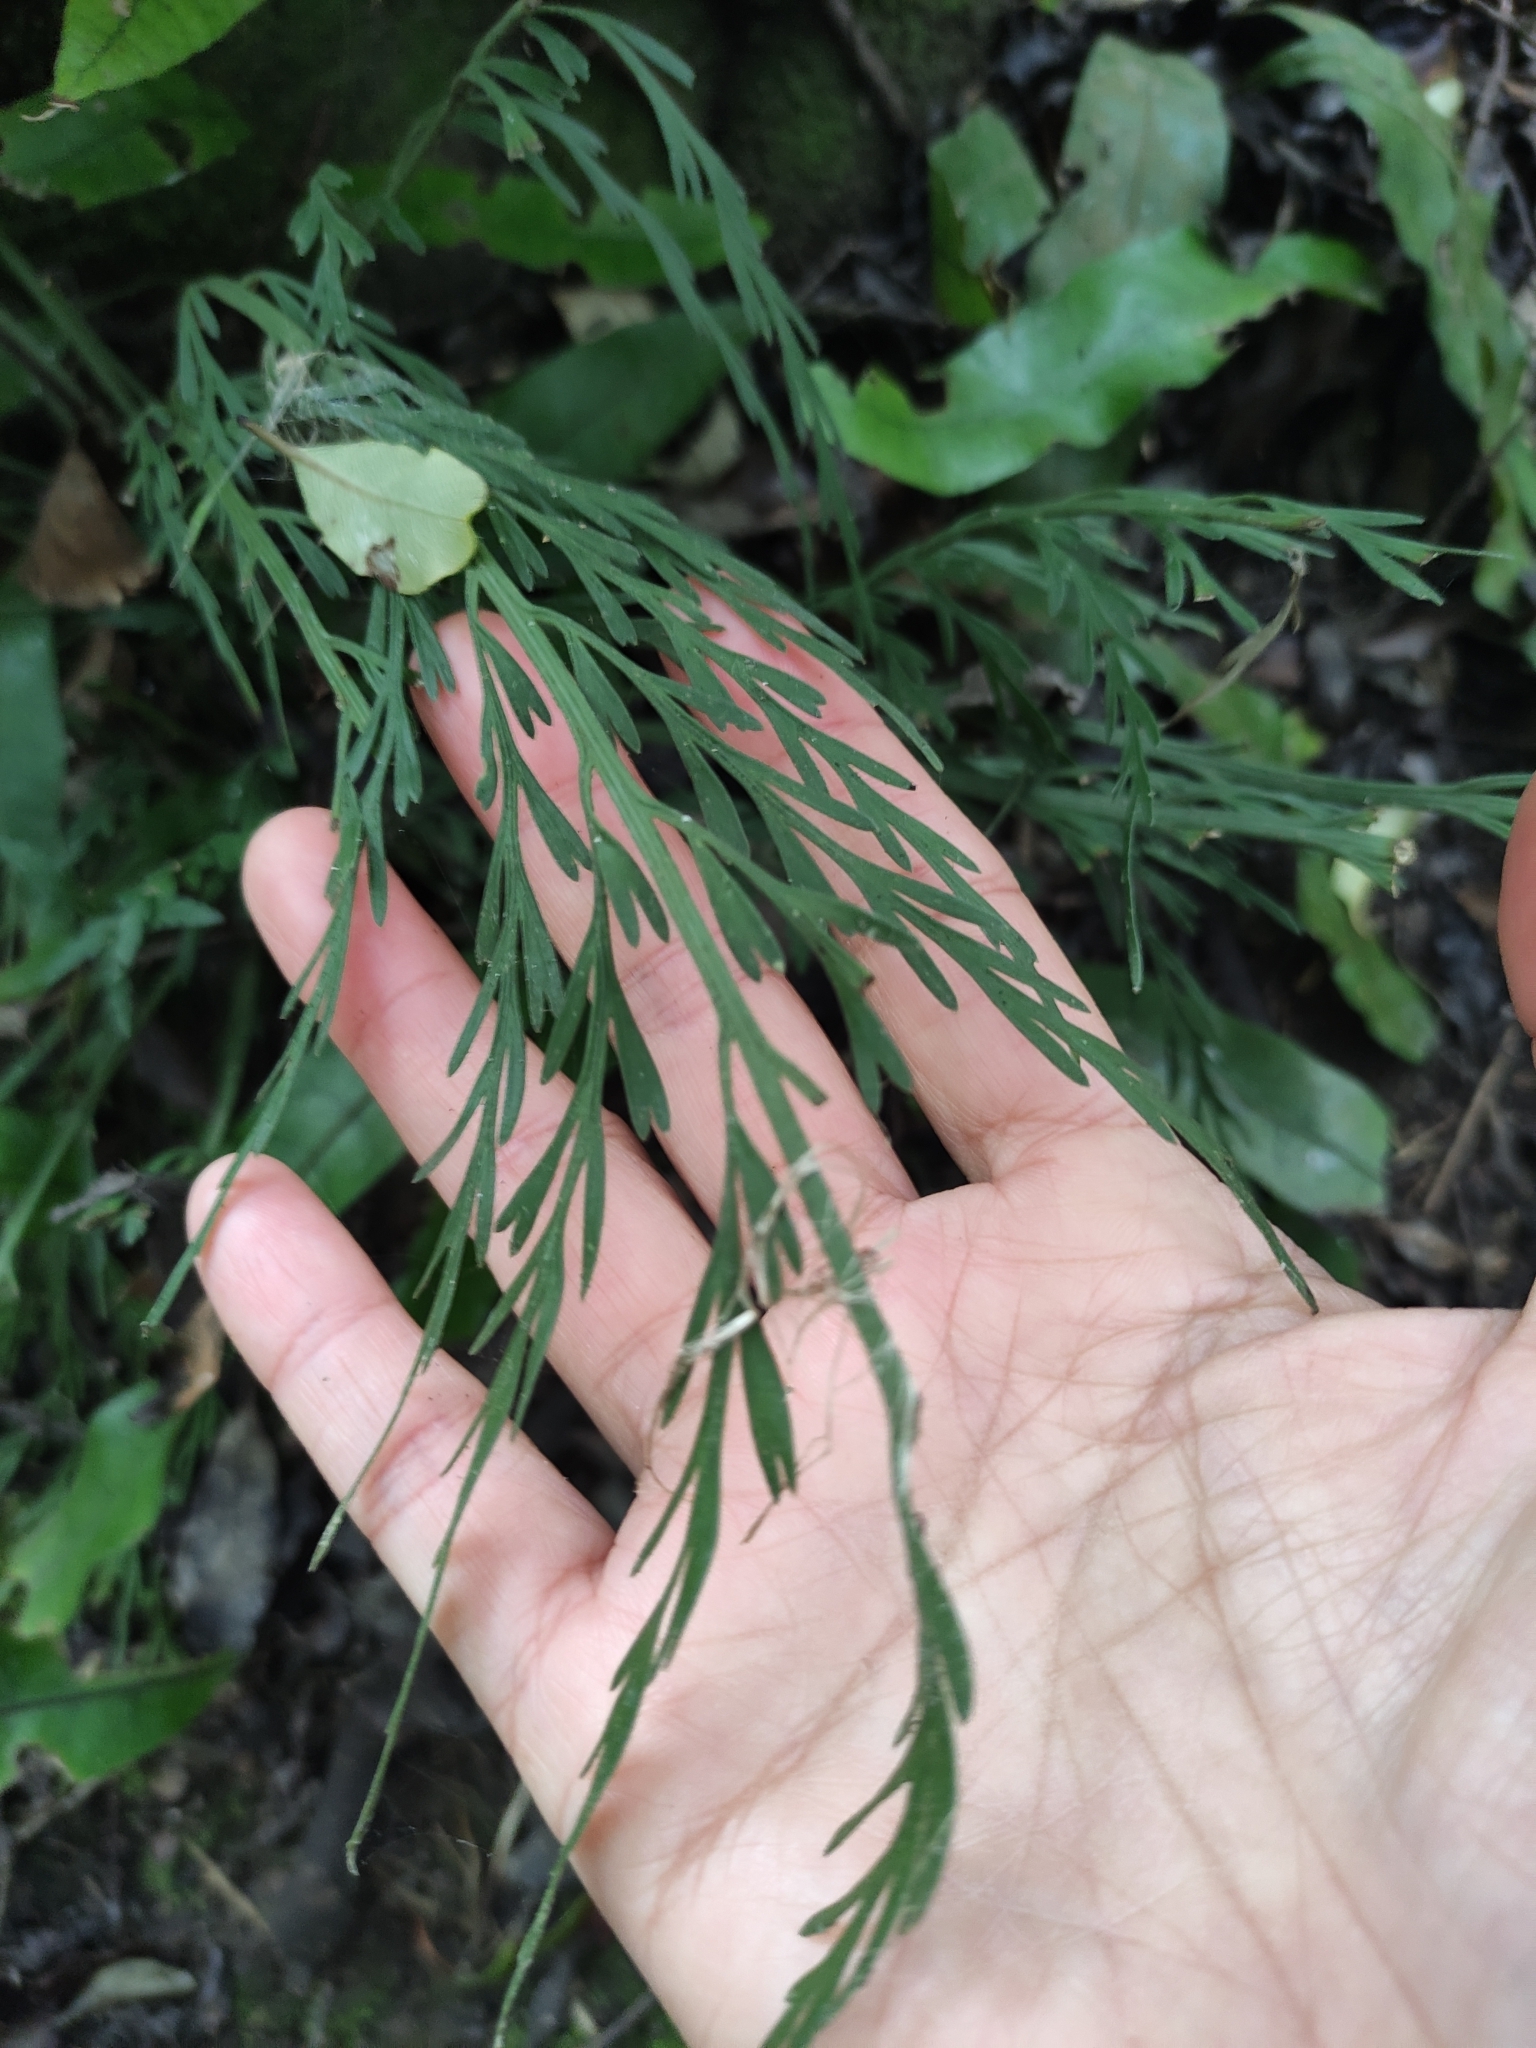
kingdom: Plantae
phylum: Tracheophyta
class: Polypodiopsida
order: Polypodiales
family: Aspleniaceae
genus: Asplenium
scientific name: Asplenium flaccidum
